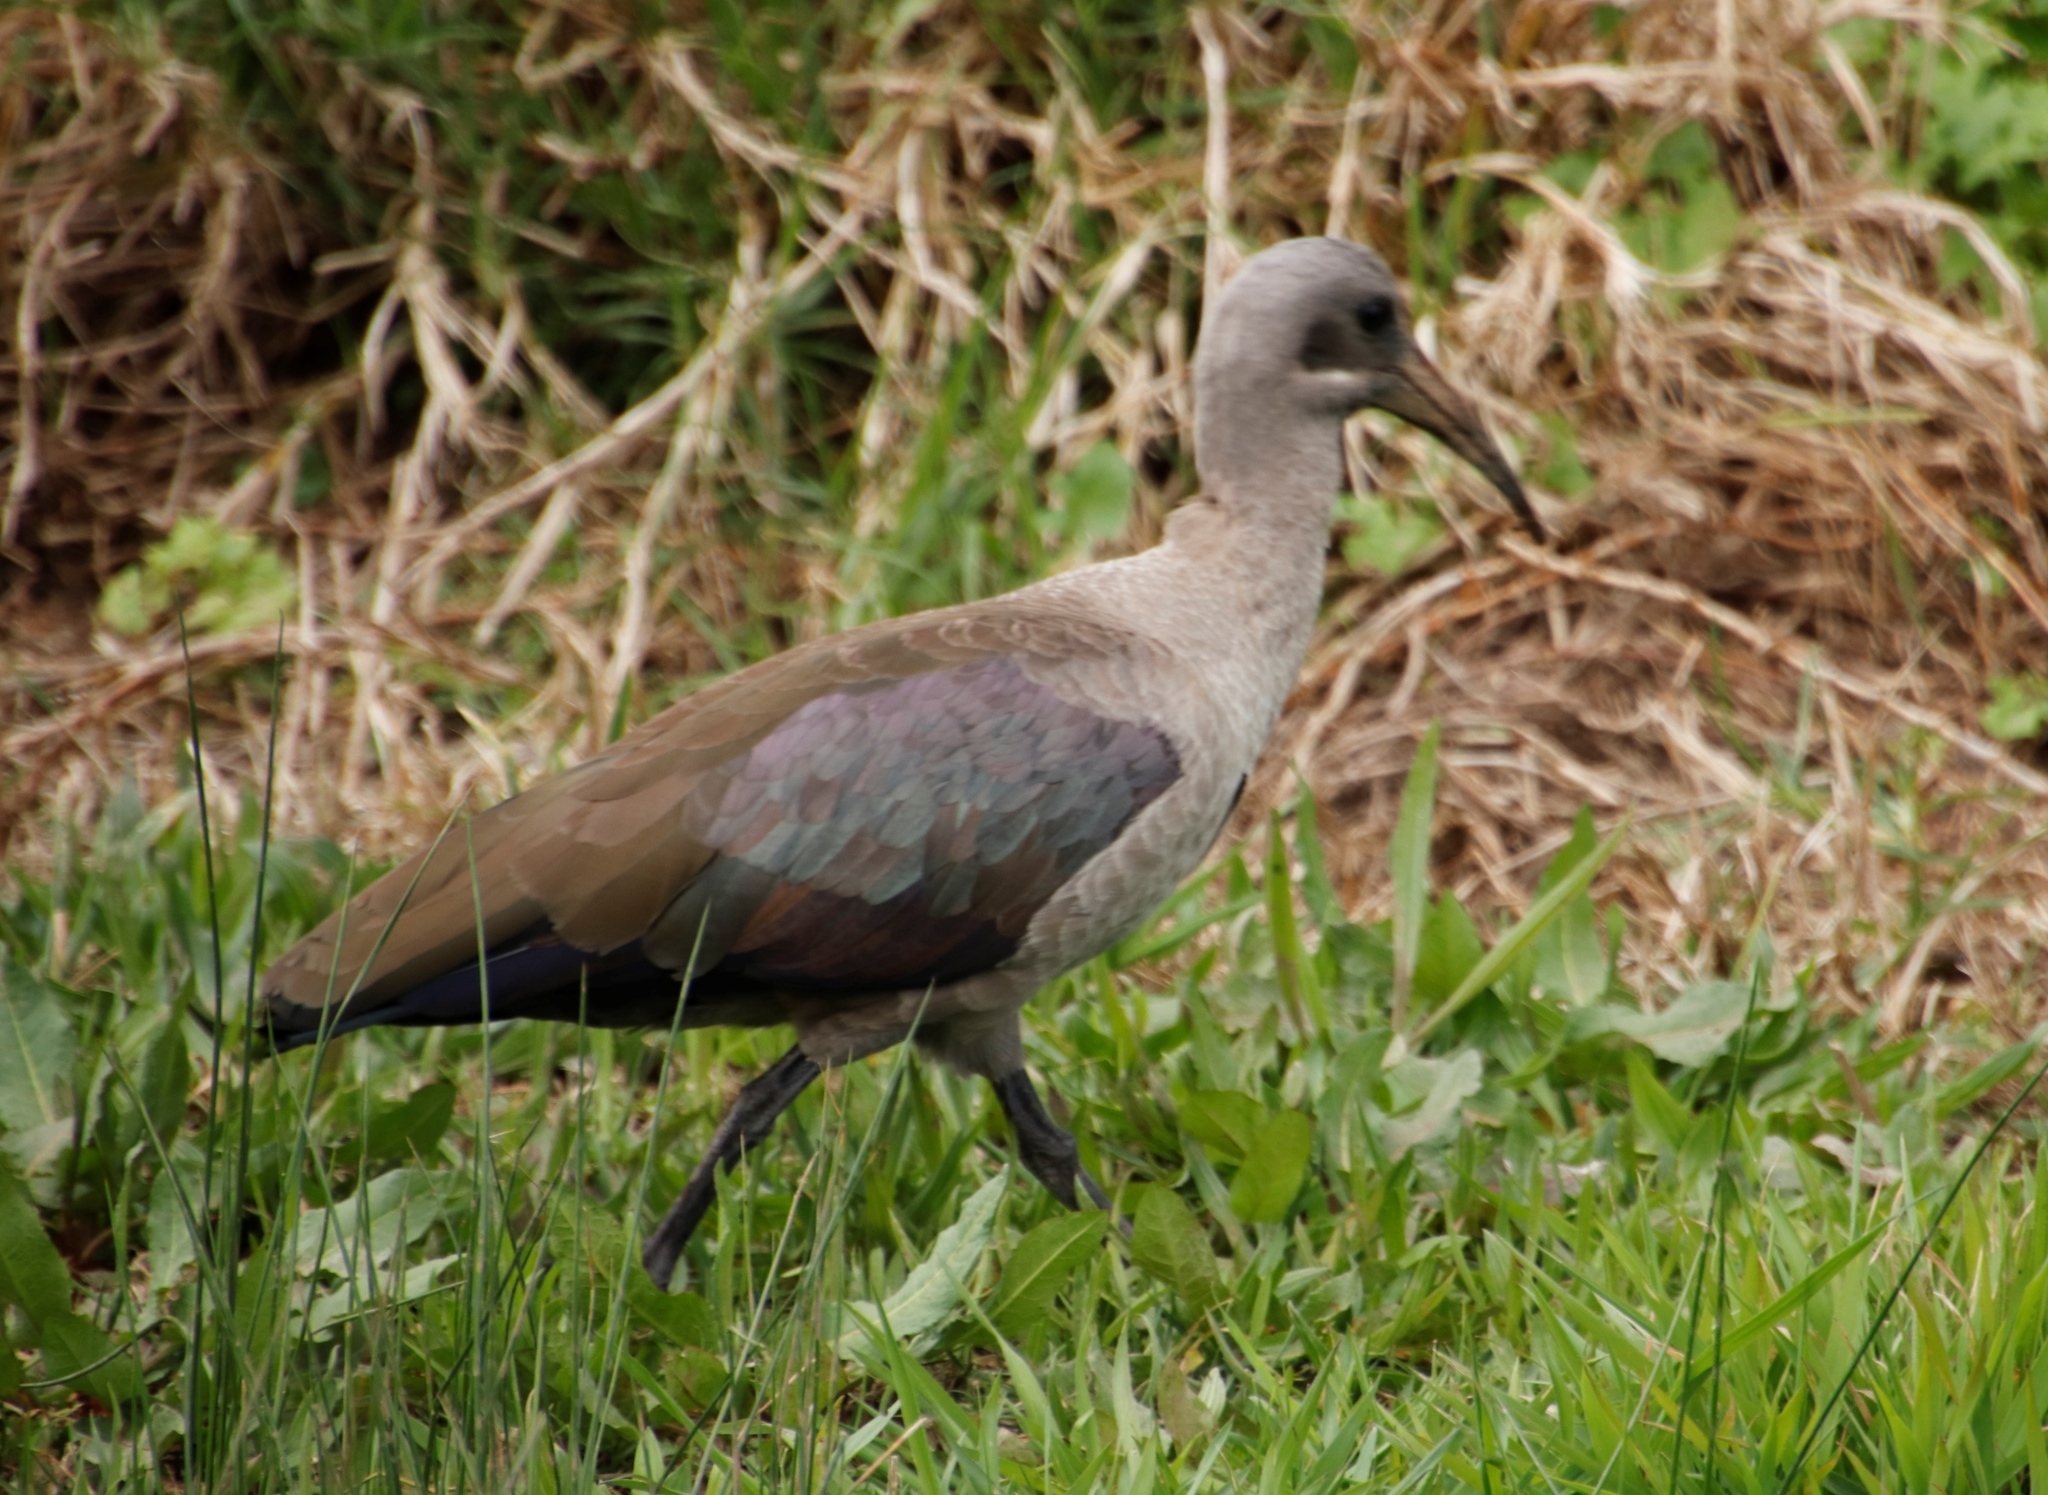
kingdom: Animalia
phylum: Chordata
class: Aves
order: Pelecaniformes
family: Threskiornithidae
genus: Bostrychia
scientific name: Bostrychia hagedash
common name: Hadada ibis
